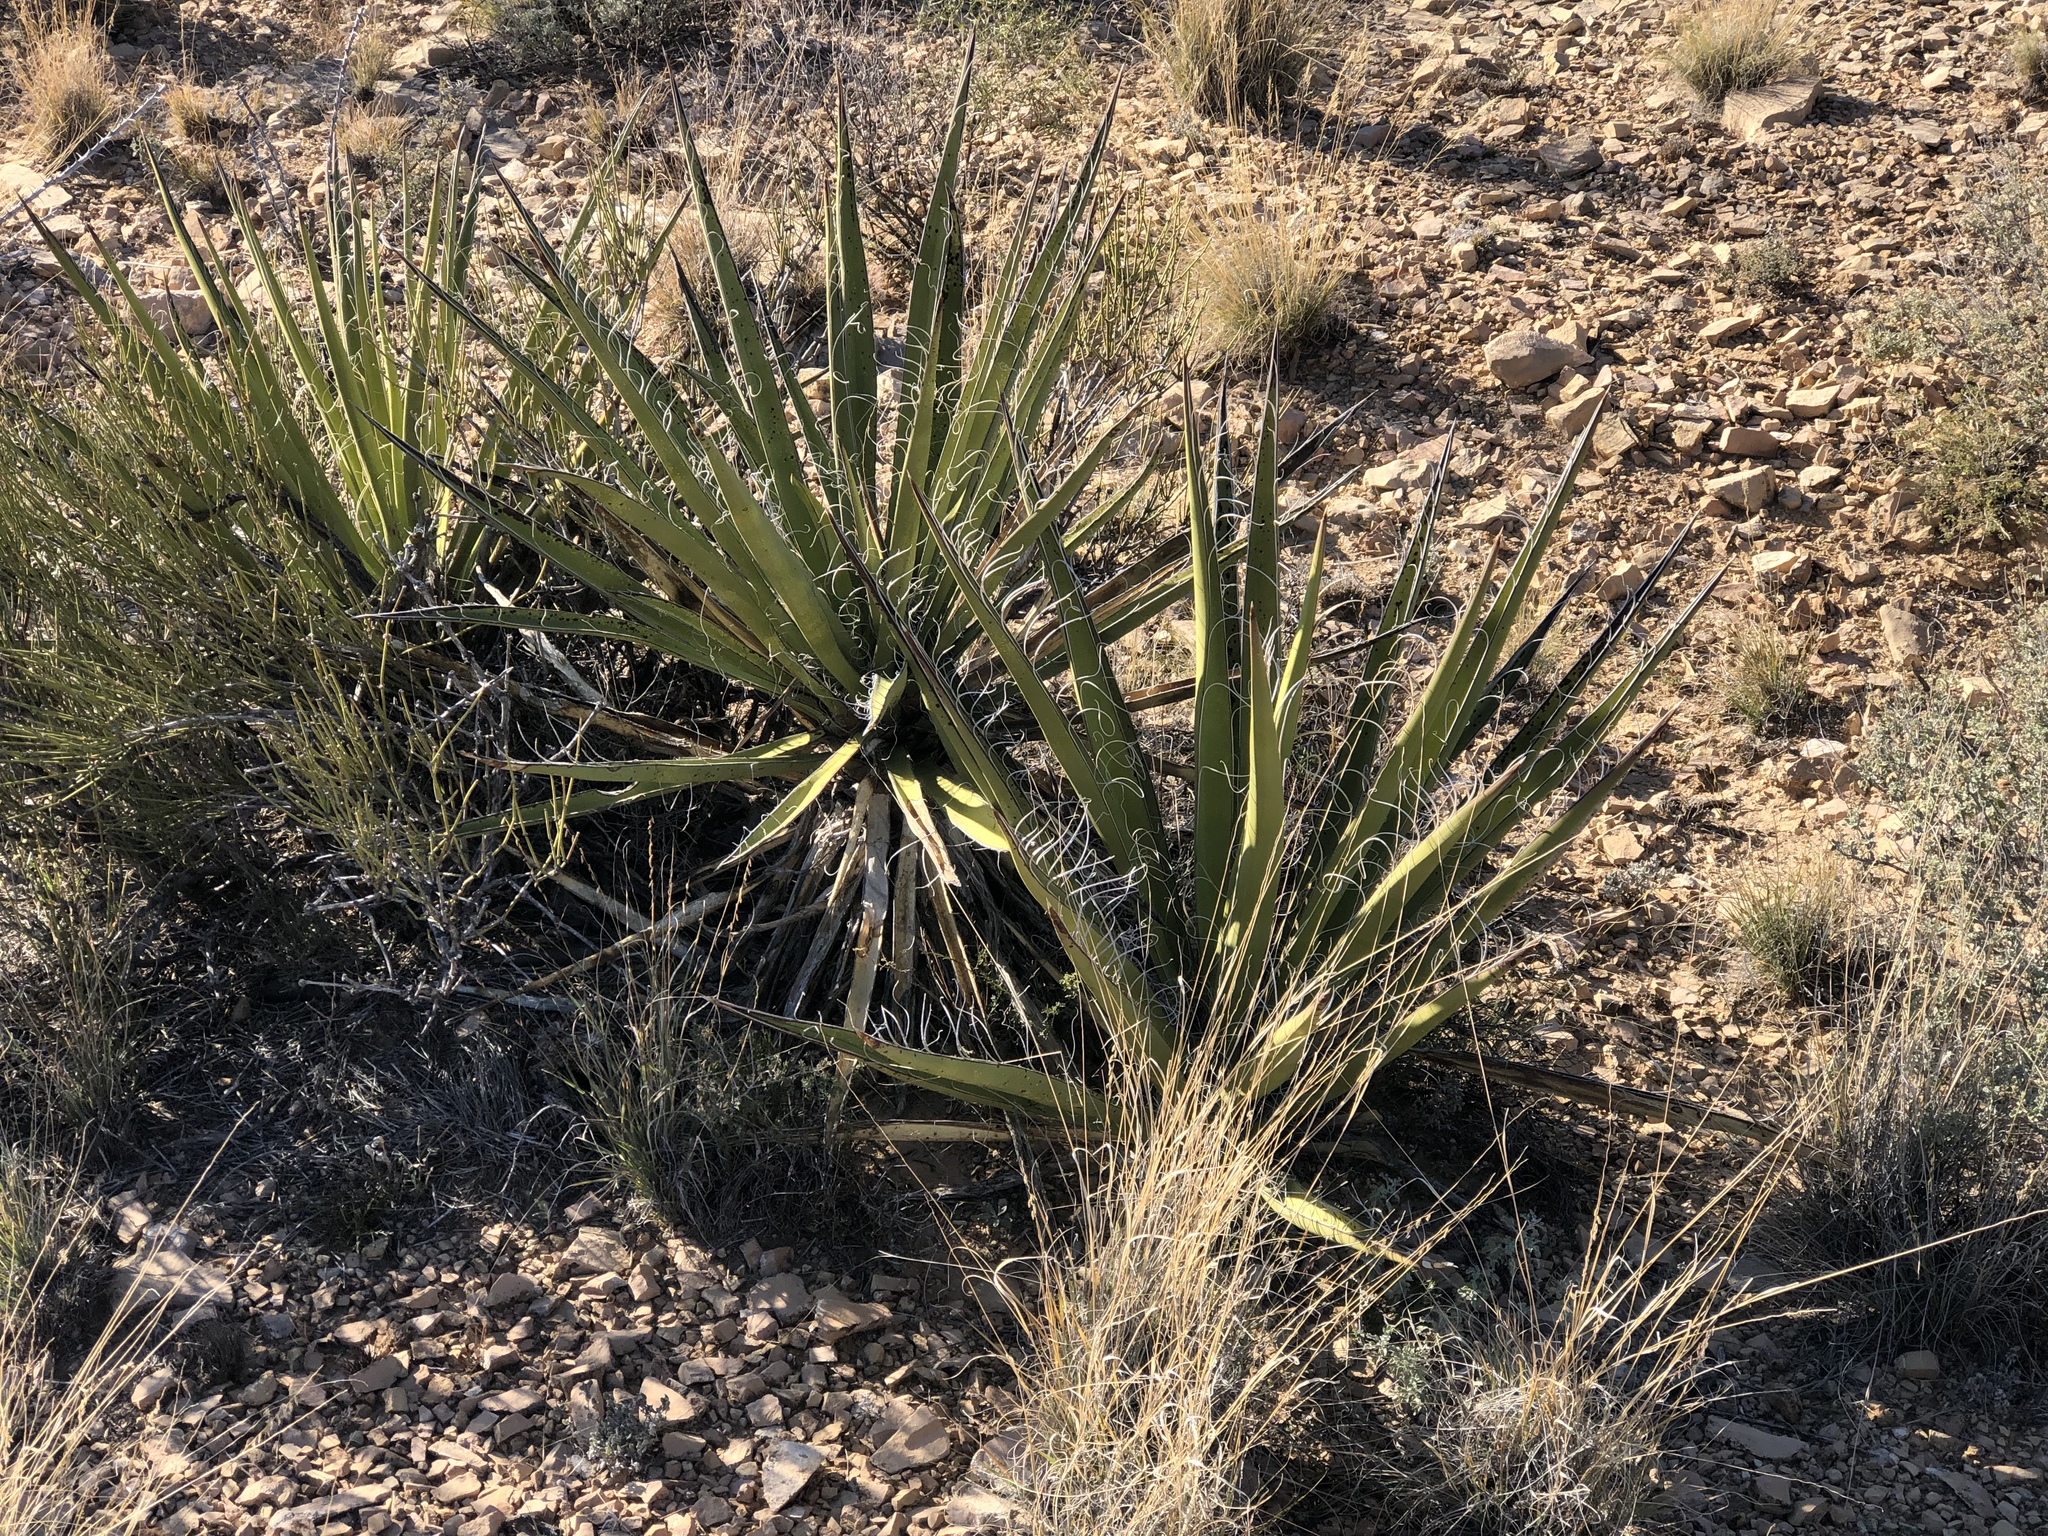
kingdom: Plantae
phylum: Tracheophyta
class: Liliopsida
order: Asparagales
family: Asparagaceae
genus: Yucca
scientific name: Yucca baccata
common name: Banana yucca
